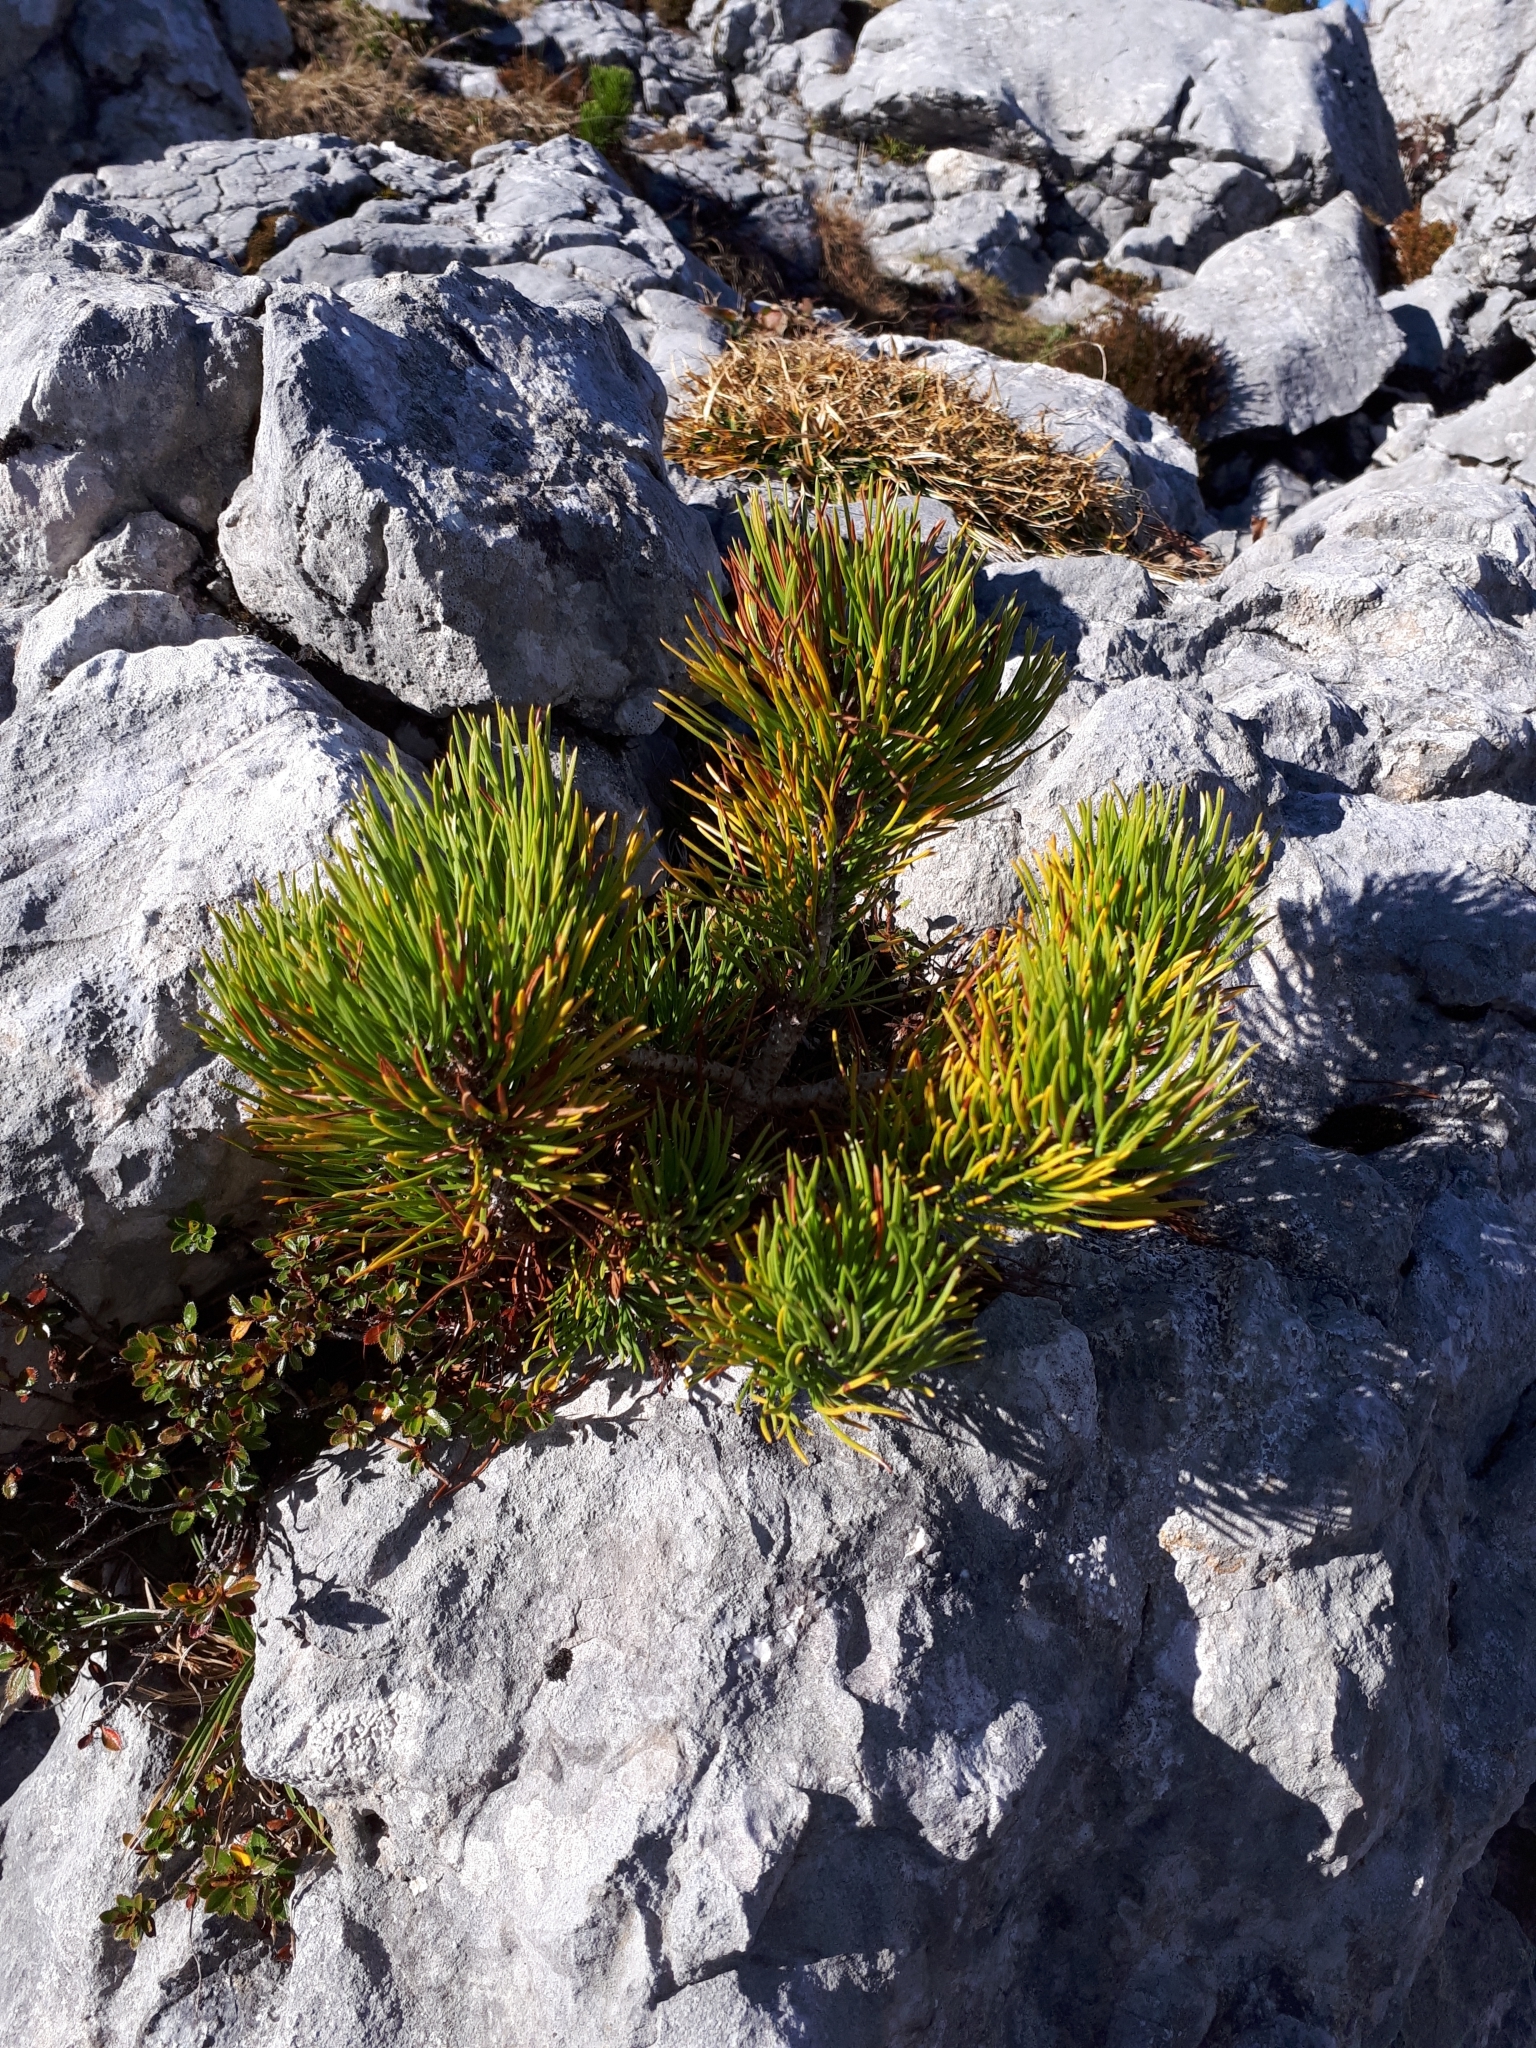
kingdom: Plantae
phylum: Tracheophyta
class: Pinopsida
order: Pinales
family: Pinaceae
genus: Pinus
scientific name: Pinus mugo
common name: Mugo pine
